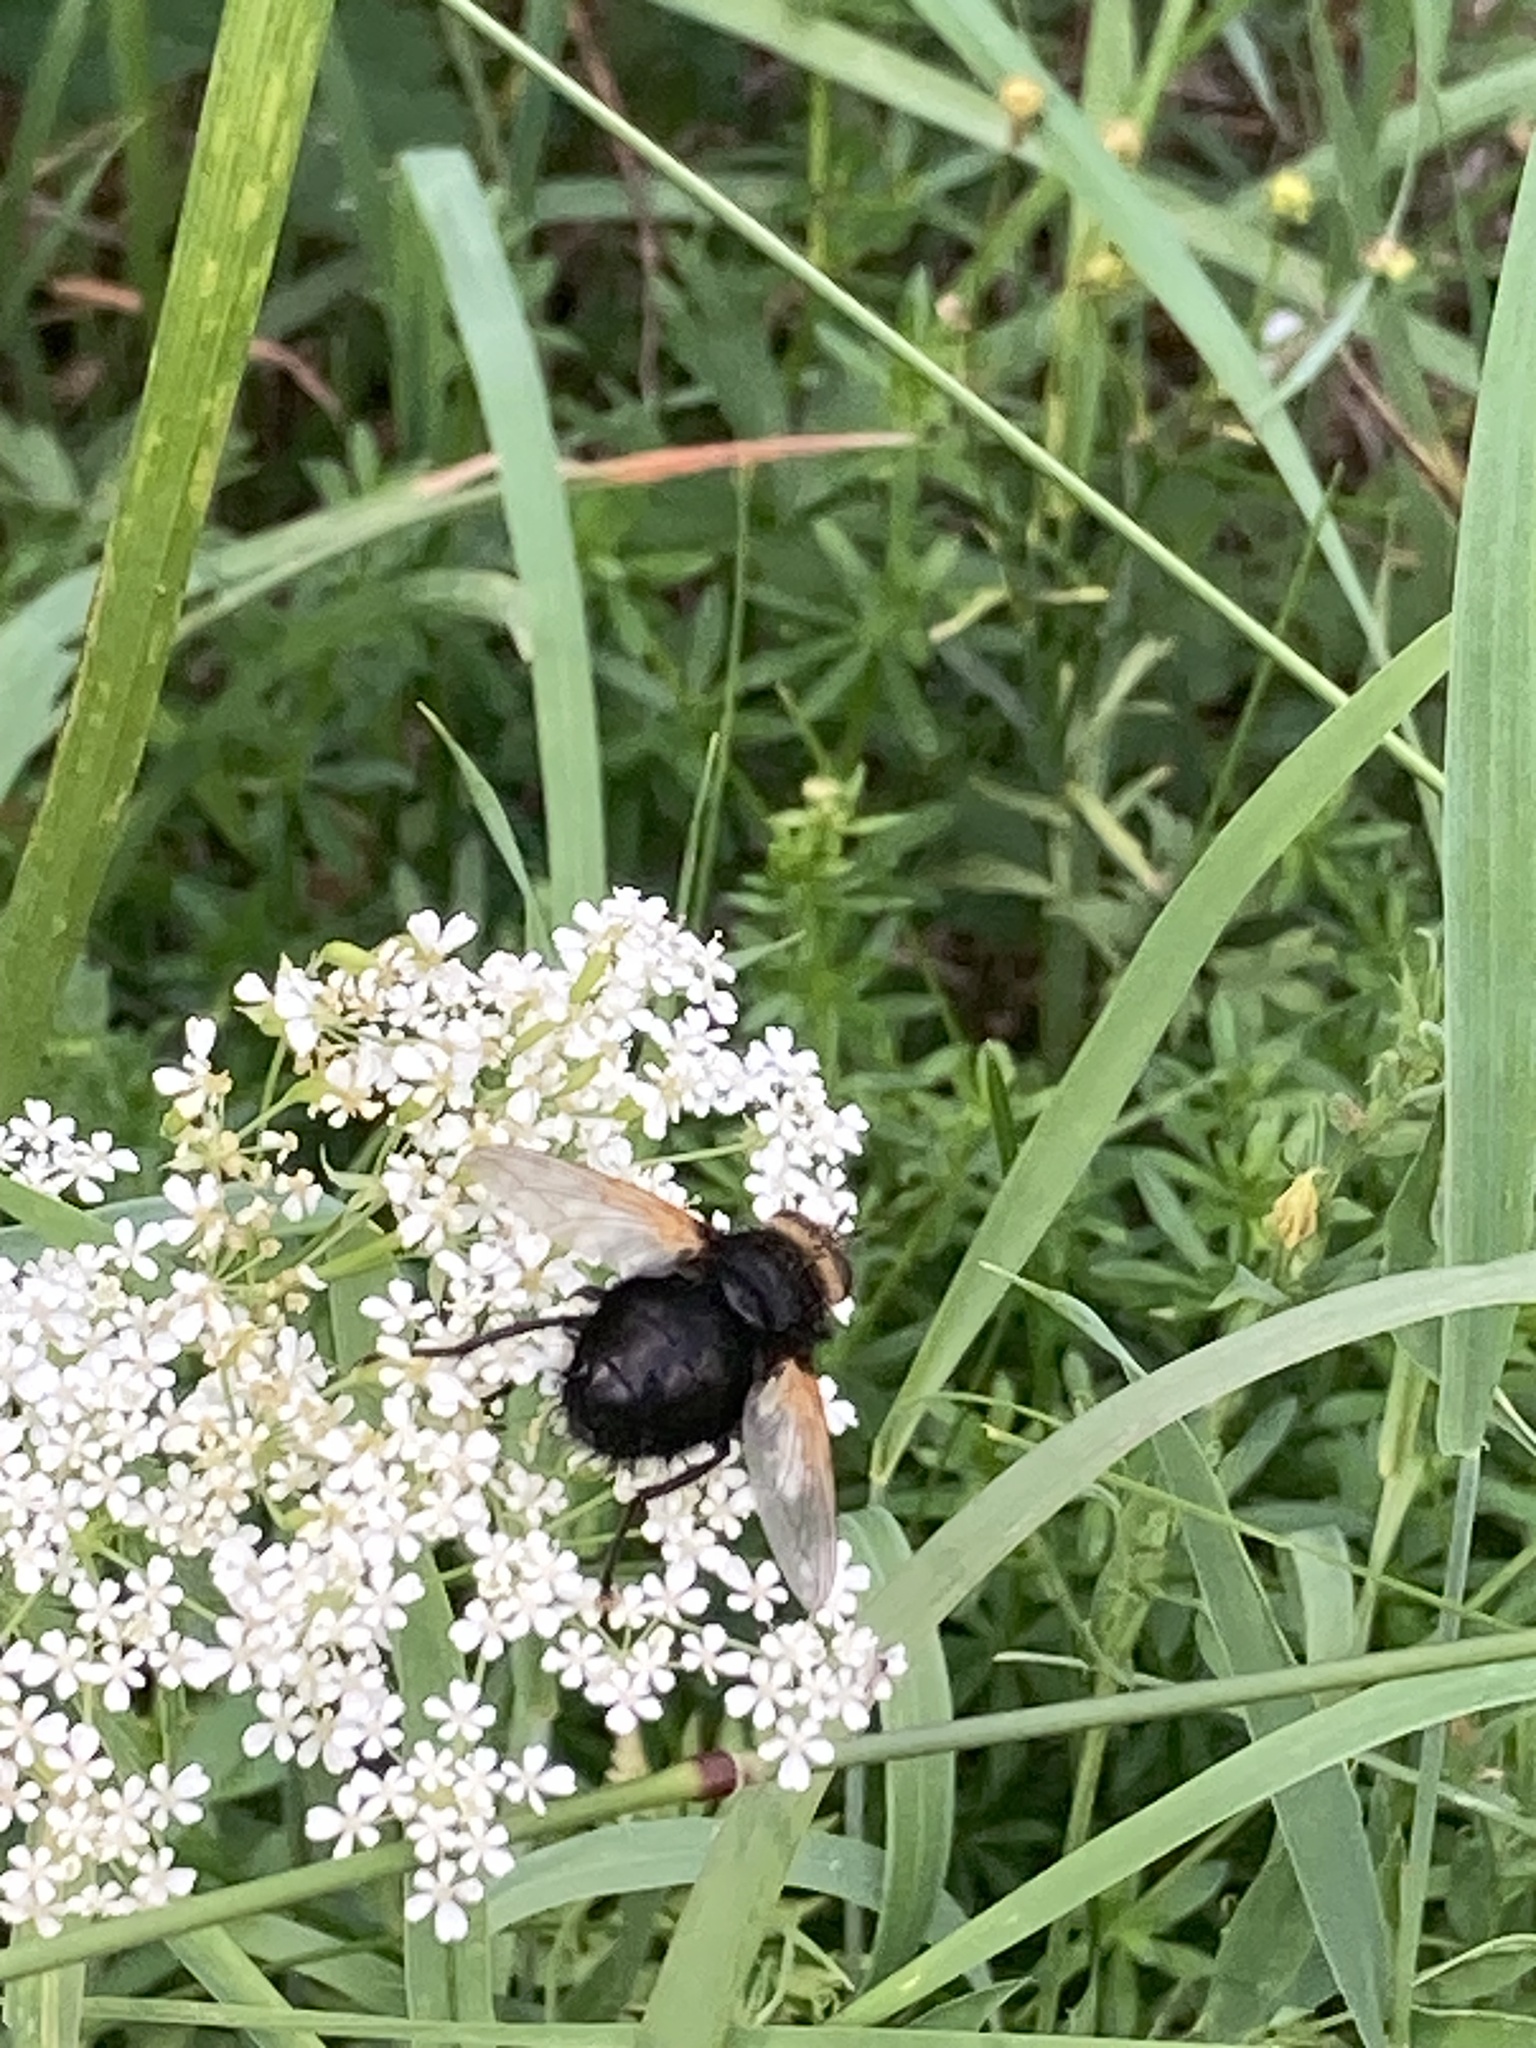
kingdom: Animalia
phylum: Arthropoda
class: Insecta
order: Diptera
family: Tachinidae
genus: Tachina
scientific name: Tachina grossa
